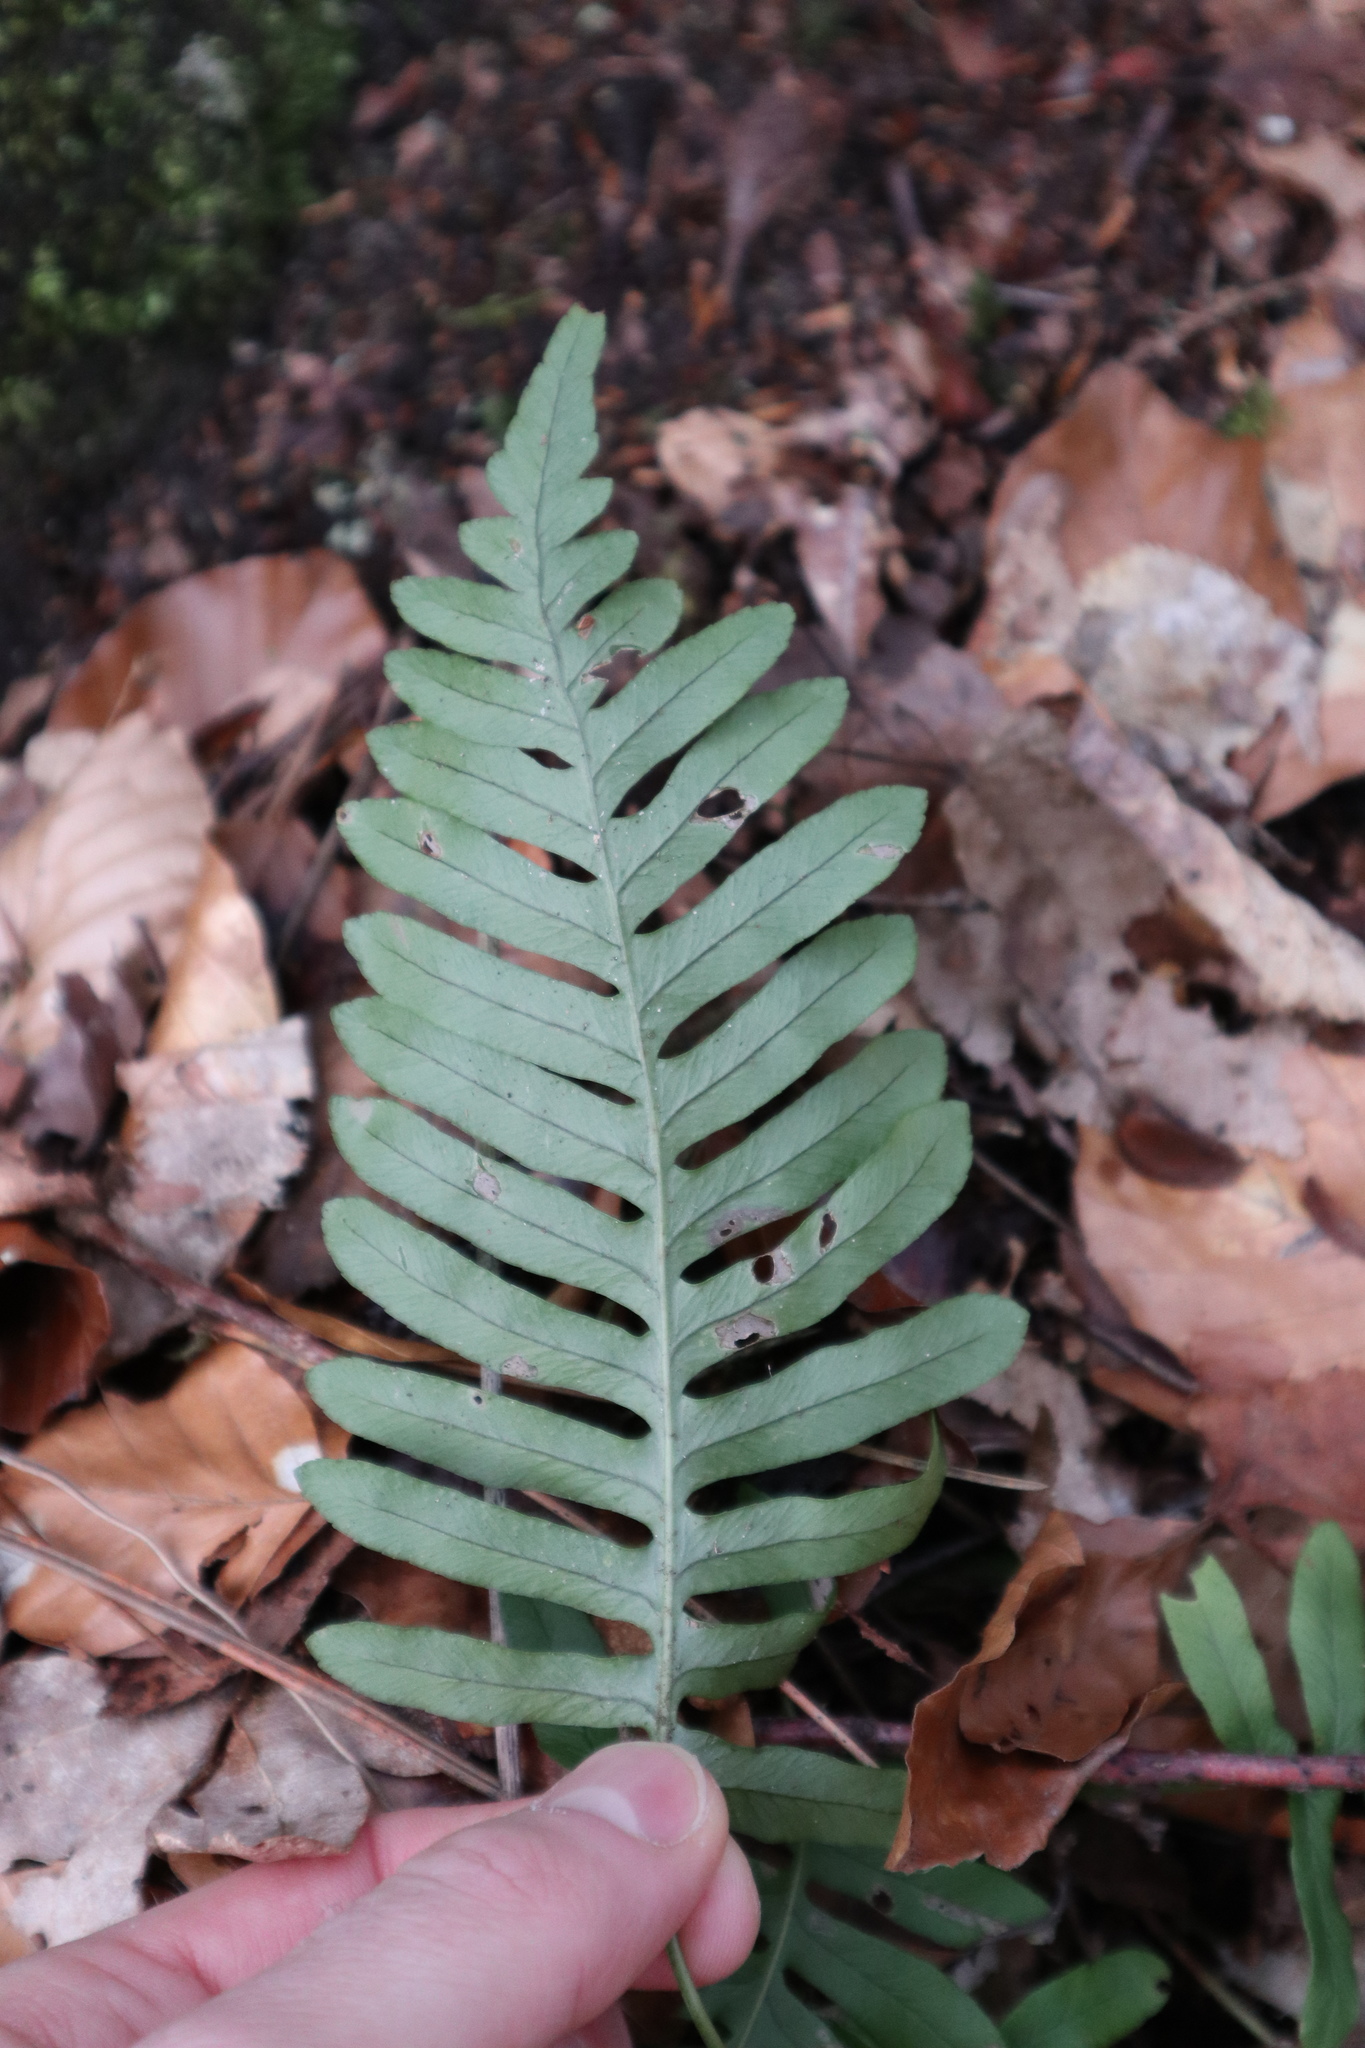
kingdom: Plantae
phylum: Tracheophyta
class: Polypodiopsida
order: Polypodiales
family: Polypodiaceae
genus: Polypodium
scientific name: Polypodium vulgare
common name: Common polypody
